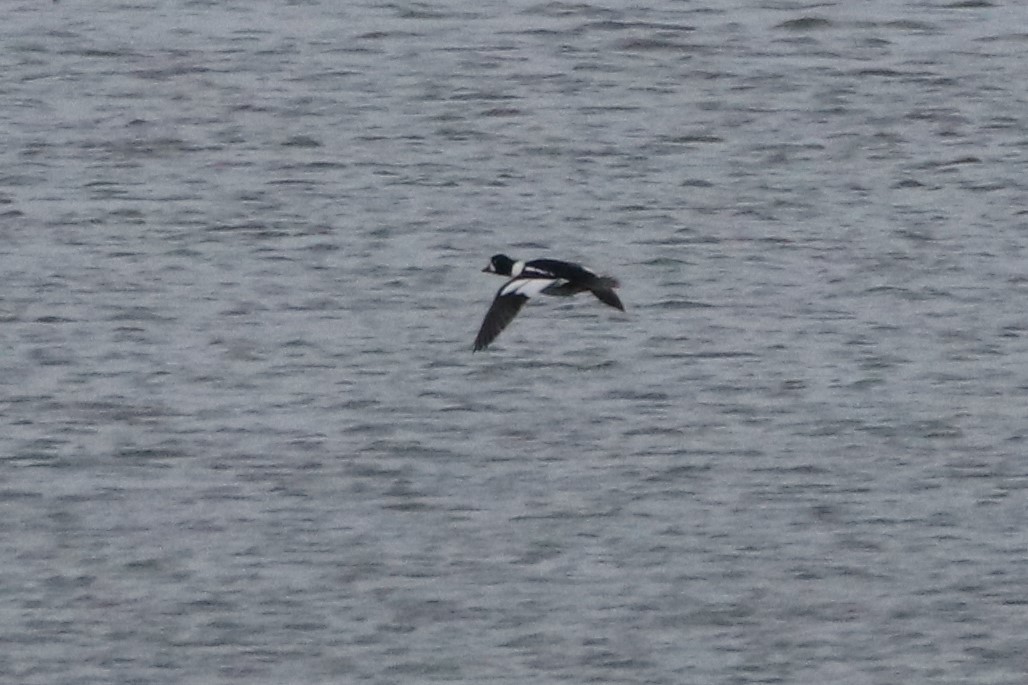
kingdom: Animalia
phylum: Chordata
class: Aves
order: Anseriformes
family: Anatidae
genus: Bucephala
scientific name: Bucephala islandica
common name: Barrow's goldeneye
